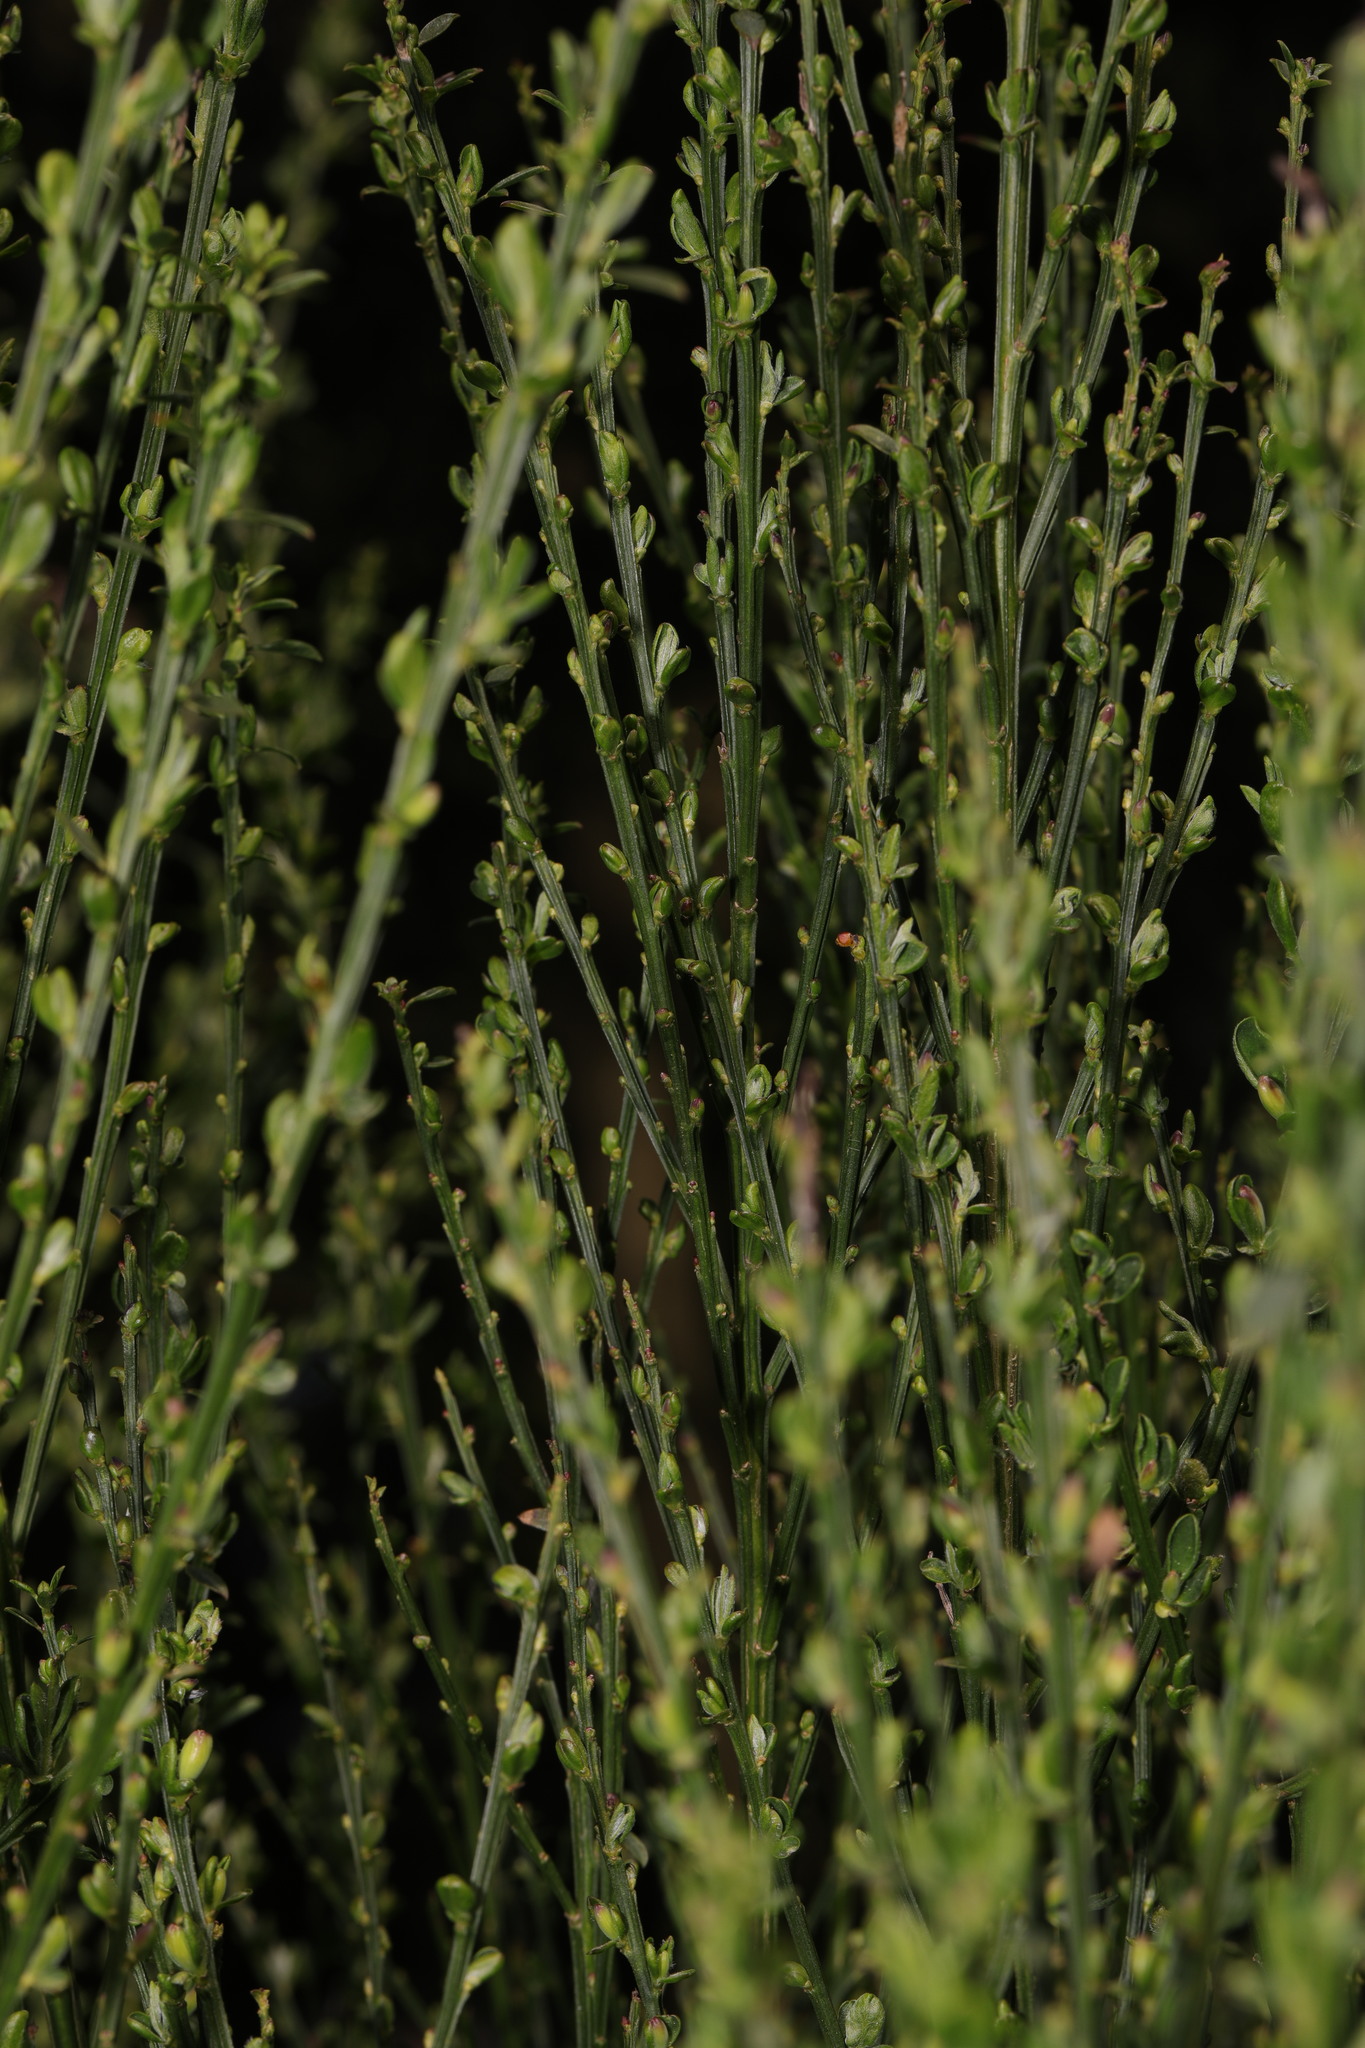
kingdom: Plantae
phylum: Tracheophyta
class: Magnoliopsida
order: Fabales
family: Fabaceae
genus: Cytisus
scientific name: Cytisus scoparius
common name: Scotch broom
